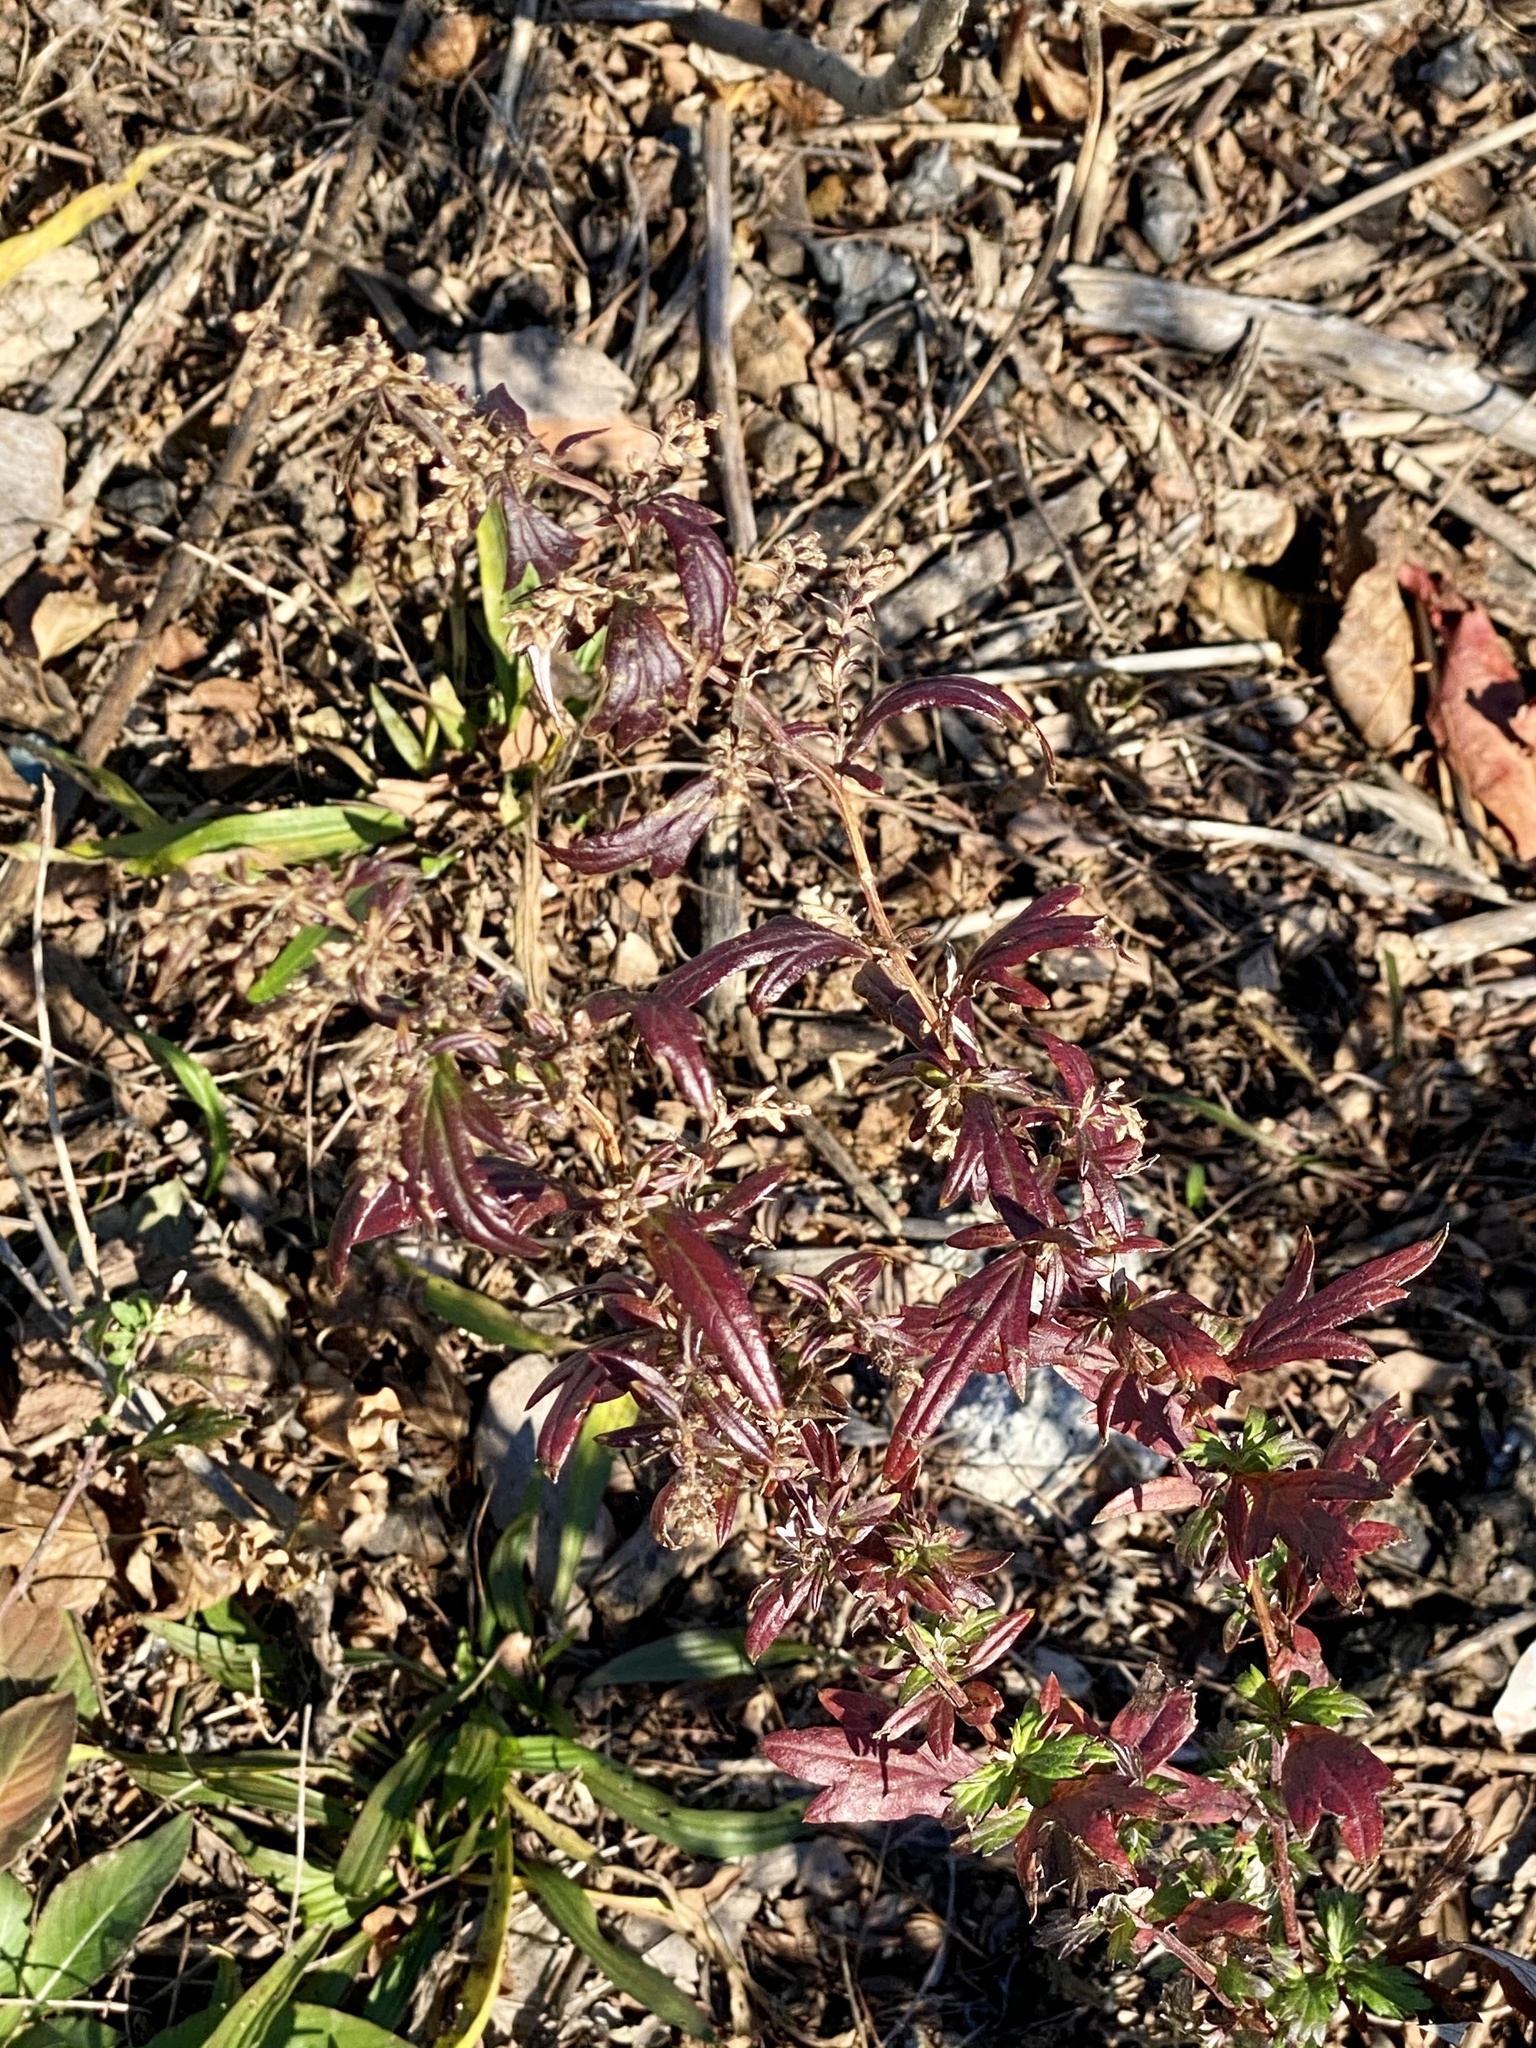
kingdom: Plantae
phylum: Tracheophyta
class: Magnoliopsida
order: Asterales
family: Asteraceae
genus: Artemisia
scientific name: Artemisia vulgaris
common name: Mugwort
